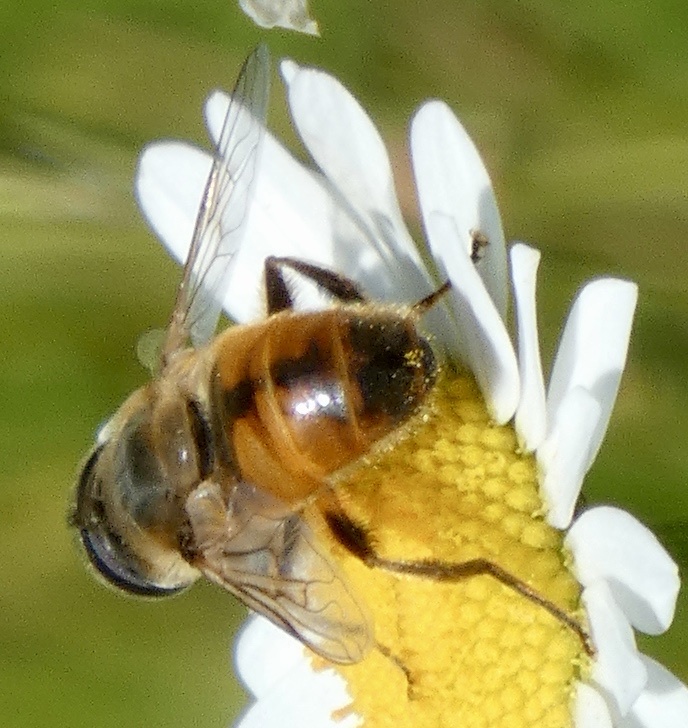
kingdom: Animalia
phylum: Arthropoda
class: Insecta
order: Diptera
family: Syrphidae
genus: Eristalis
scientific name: Eristalis tenax
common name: Drone fly
